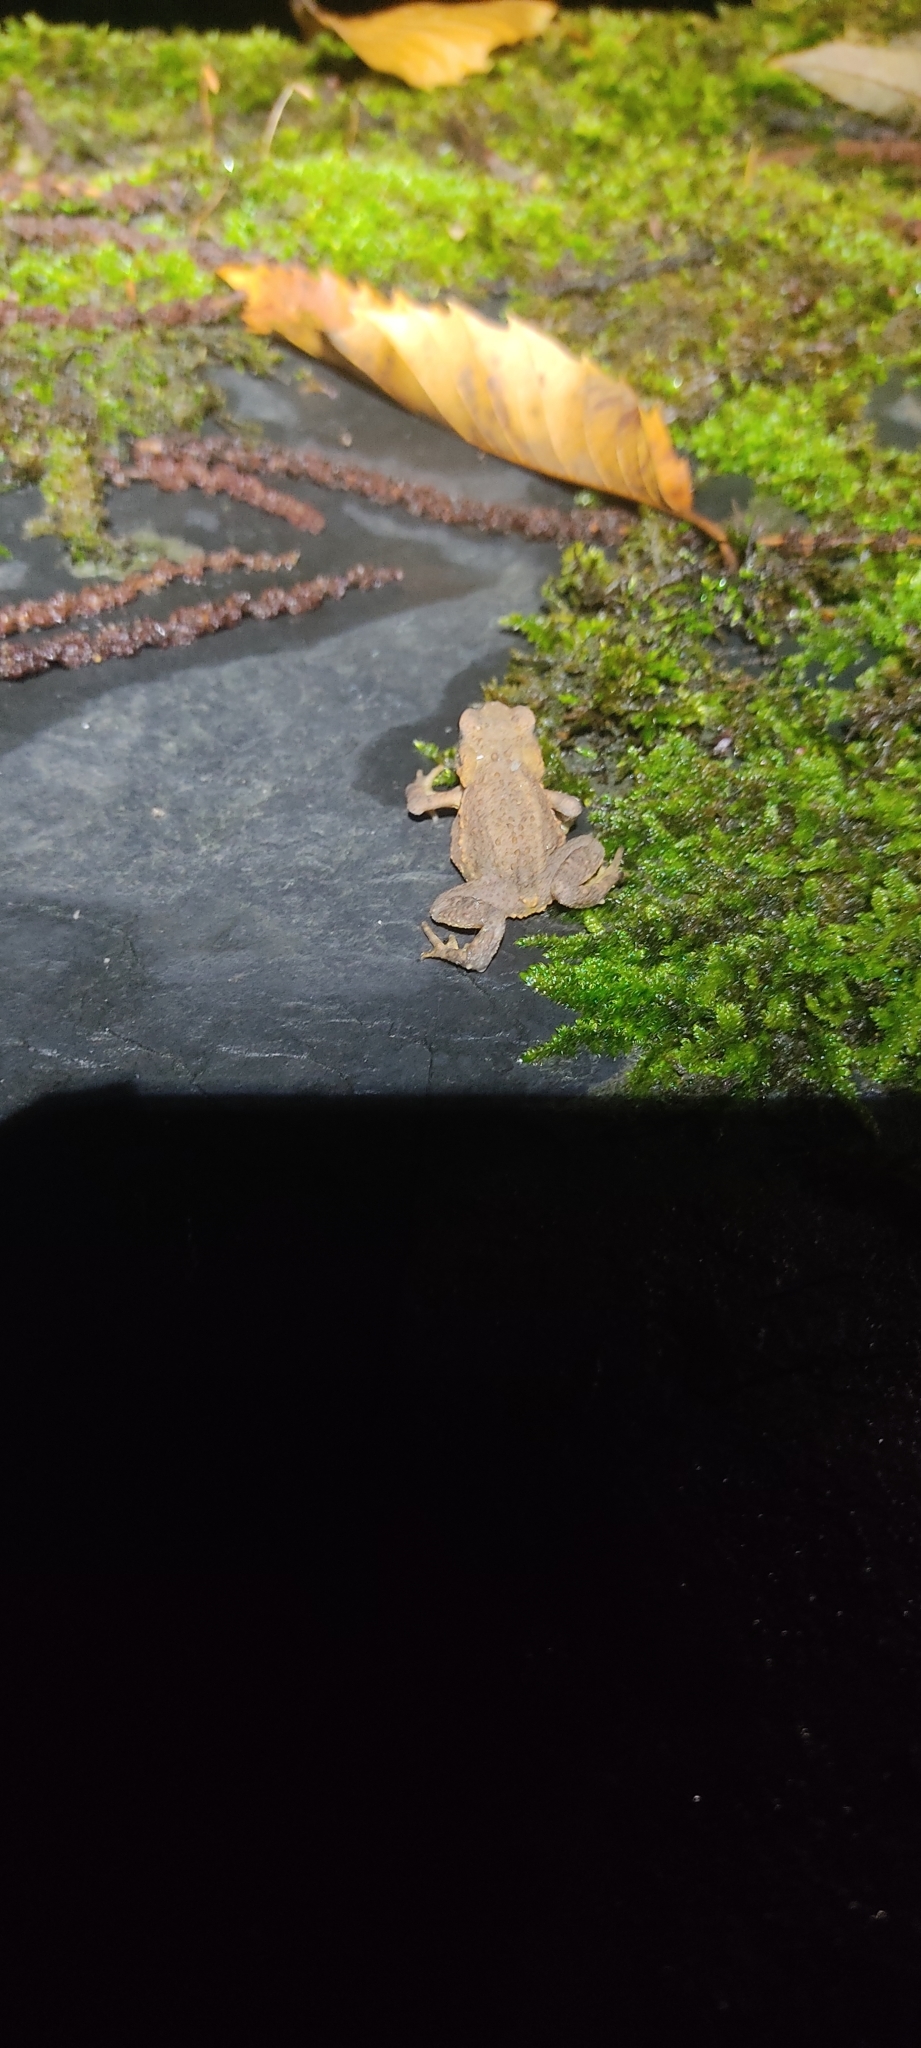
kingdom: Animalia
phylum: Chordata
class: Amphibia
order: Anura
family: Bufonidae
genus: Bufo
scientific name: Bufo spinosus
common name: Western common toad
